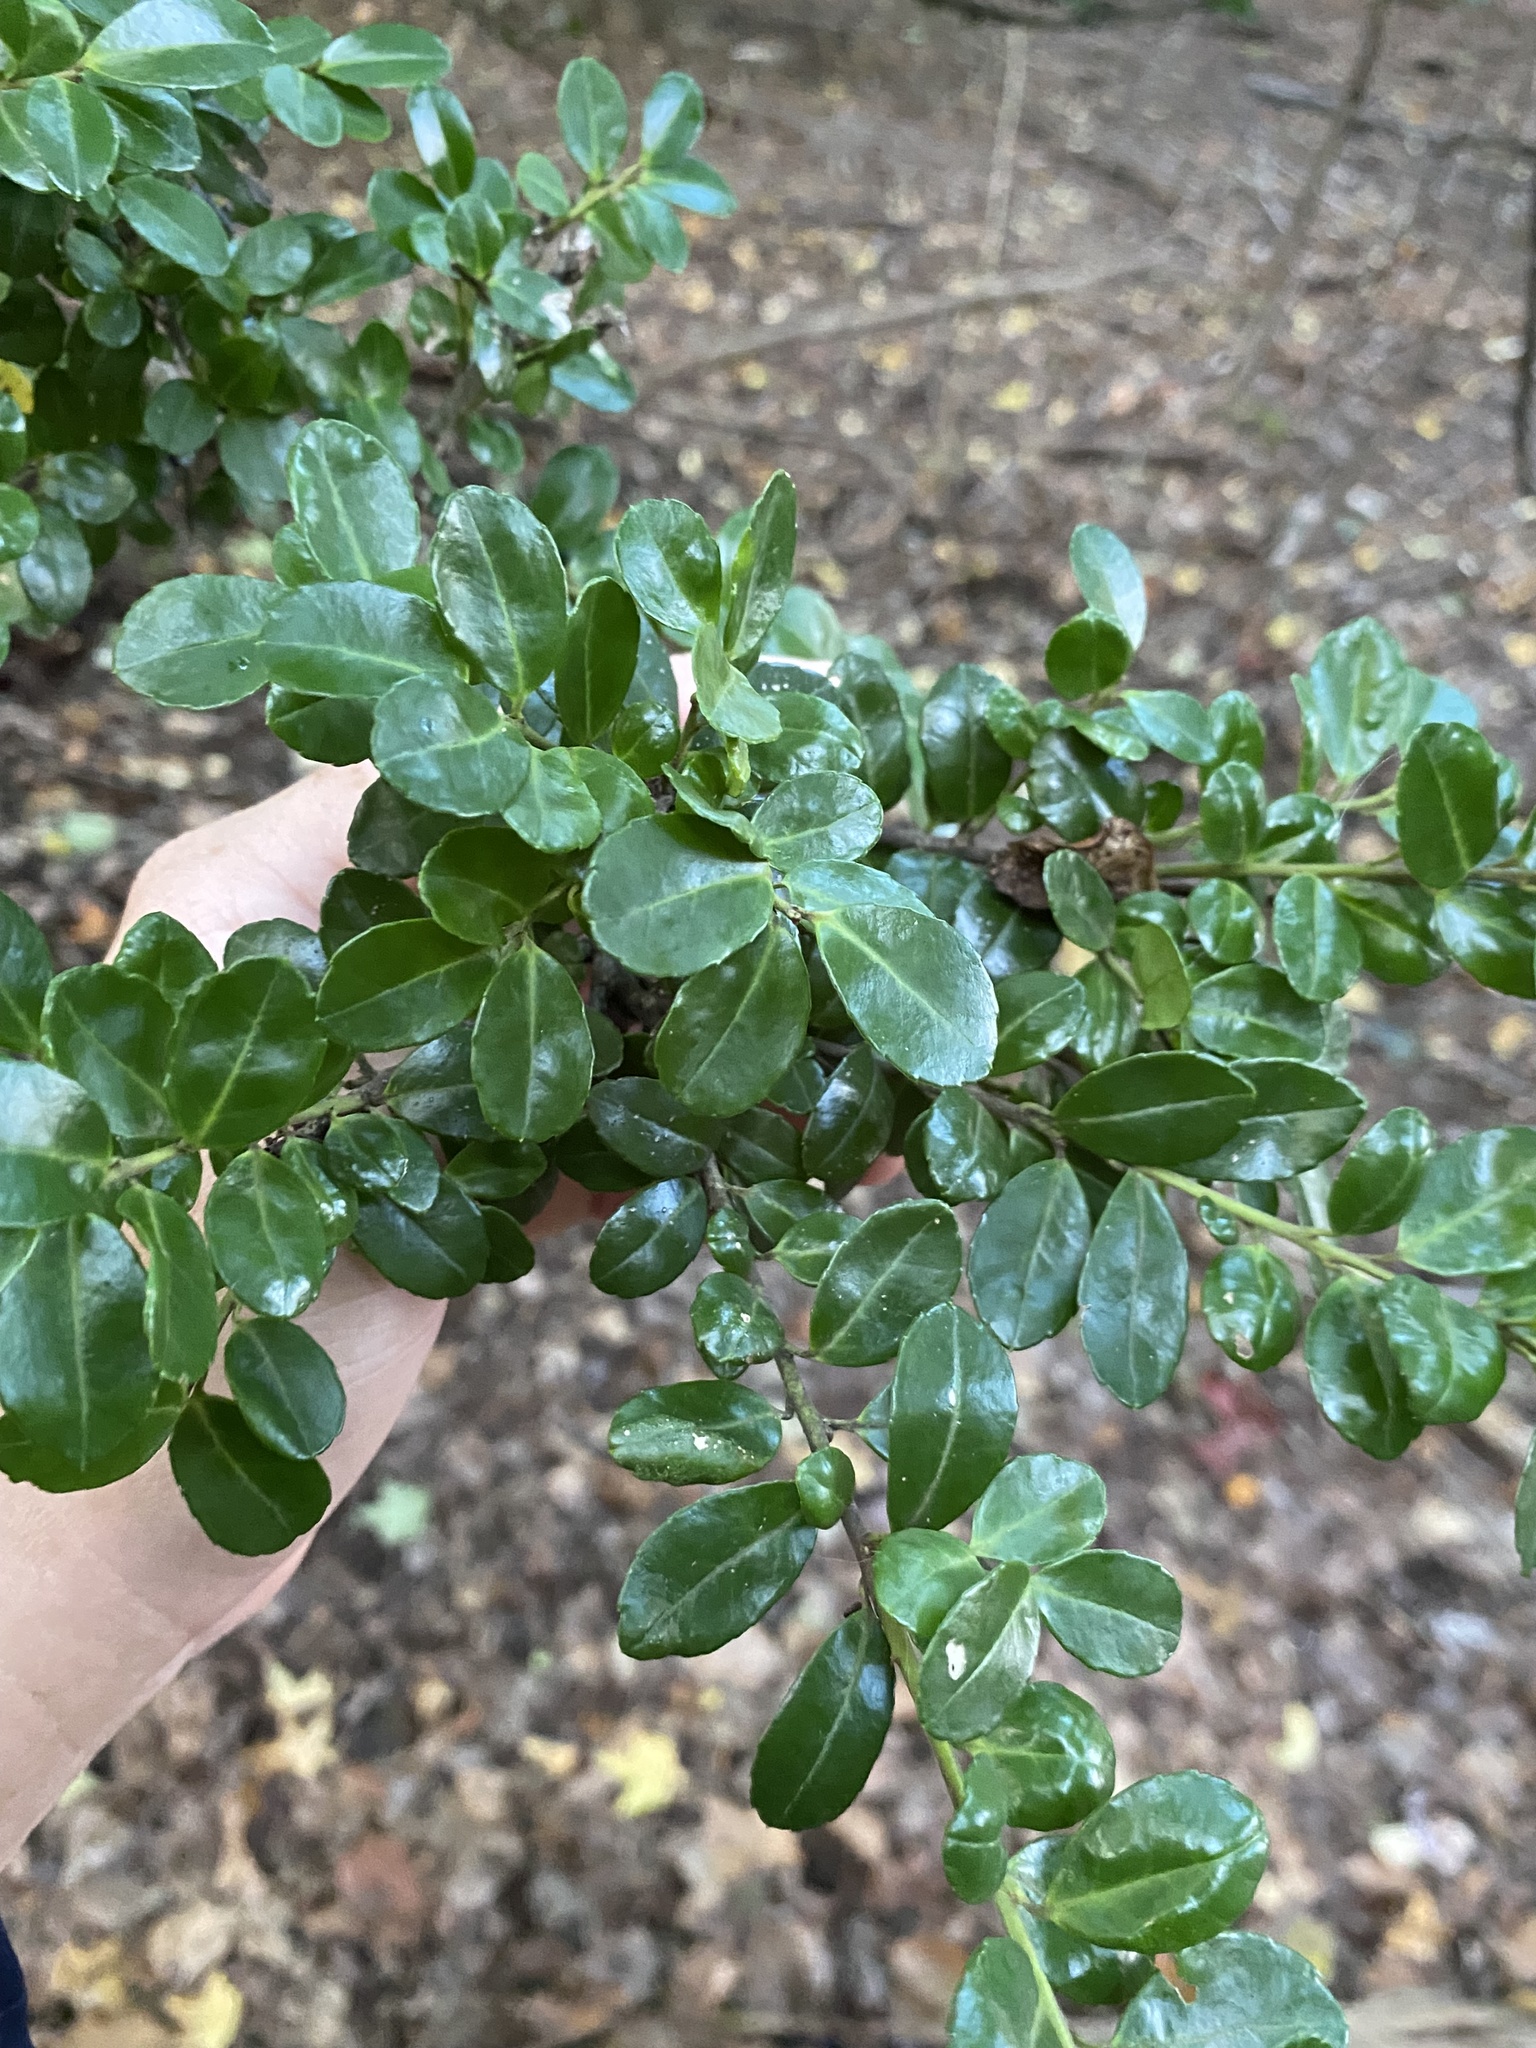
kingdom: Plantae
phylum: Tracheophyta
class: Magnoliopsida
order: Aquifoliales
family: Aquifoliaceae
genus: Ilex
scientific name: Ilex crenata
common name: Japanese holly
